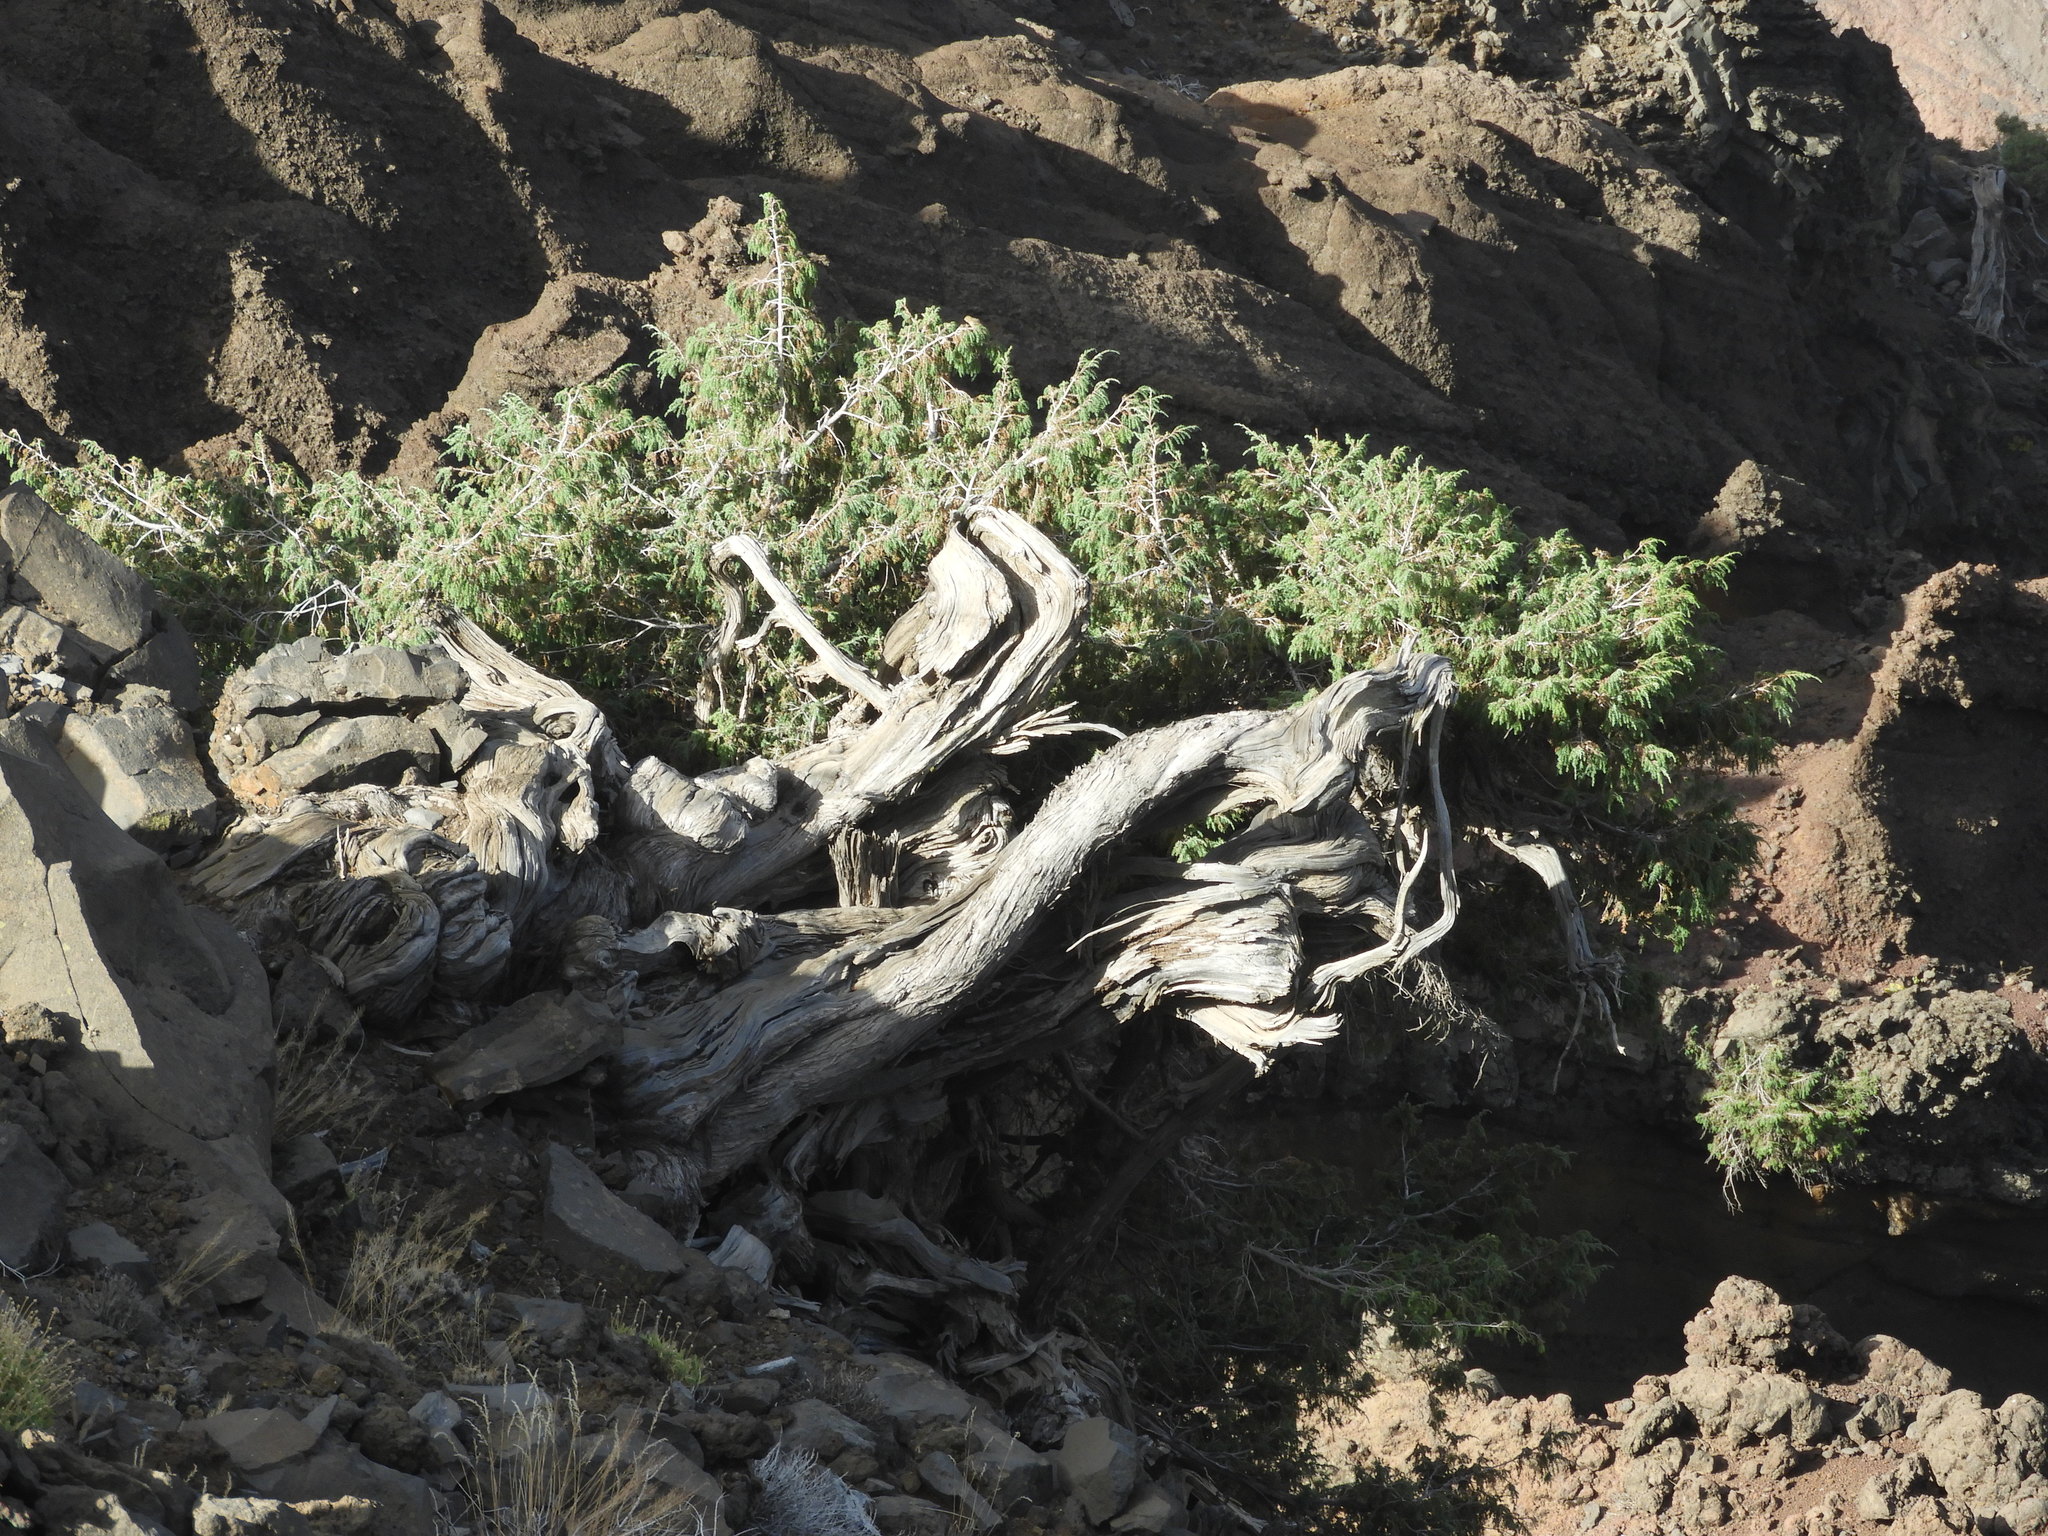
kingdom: Plantae
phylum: Tracheophyta
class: Pinopsida
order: Pinales
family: Cupressaceae
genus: Juniperus
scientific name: Juniperus cedrus
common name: Canary islands juniper
